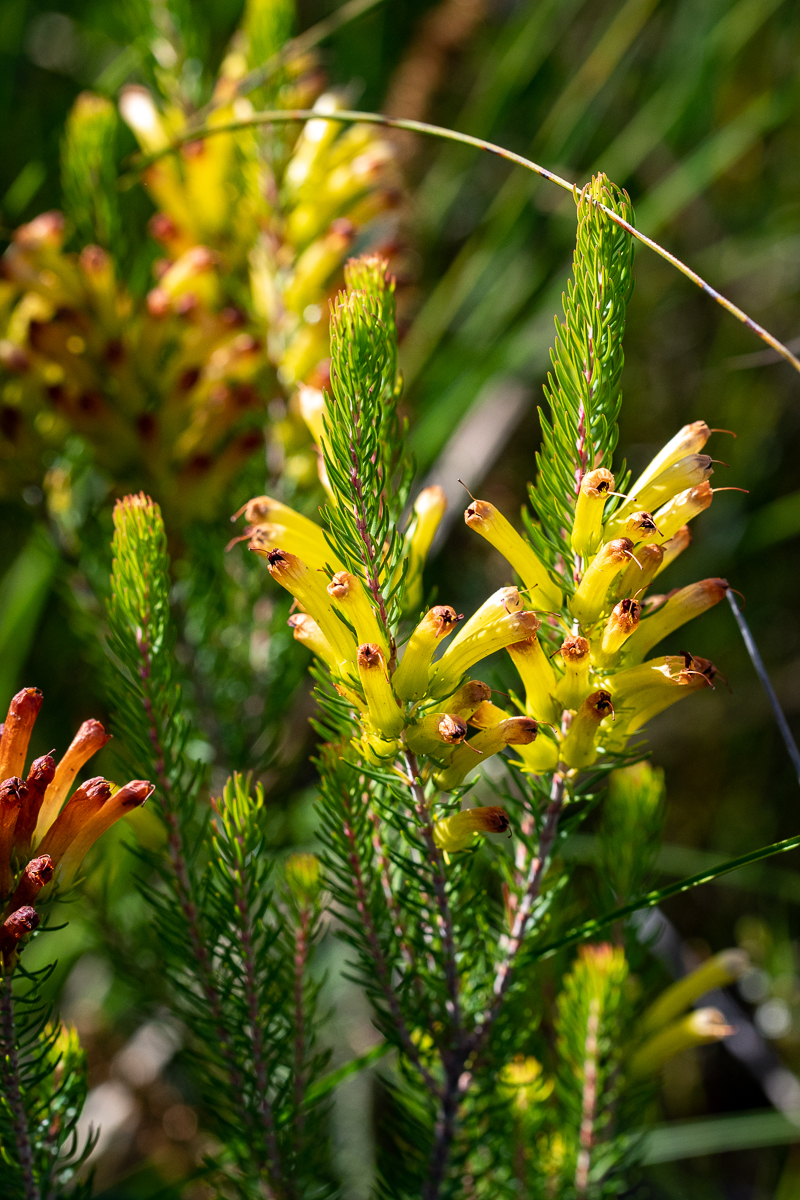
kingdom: Plantae
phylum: Tracheophyta
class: Magnoliopsida
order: Ericales
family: Ericaceae
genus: Erica
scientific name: Erica pinea
